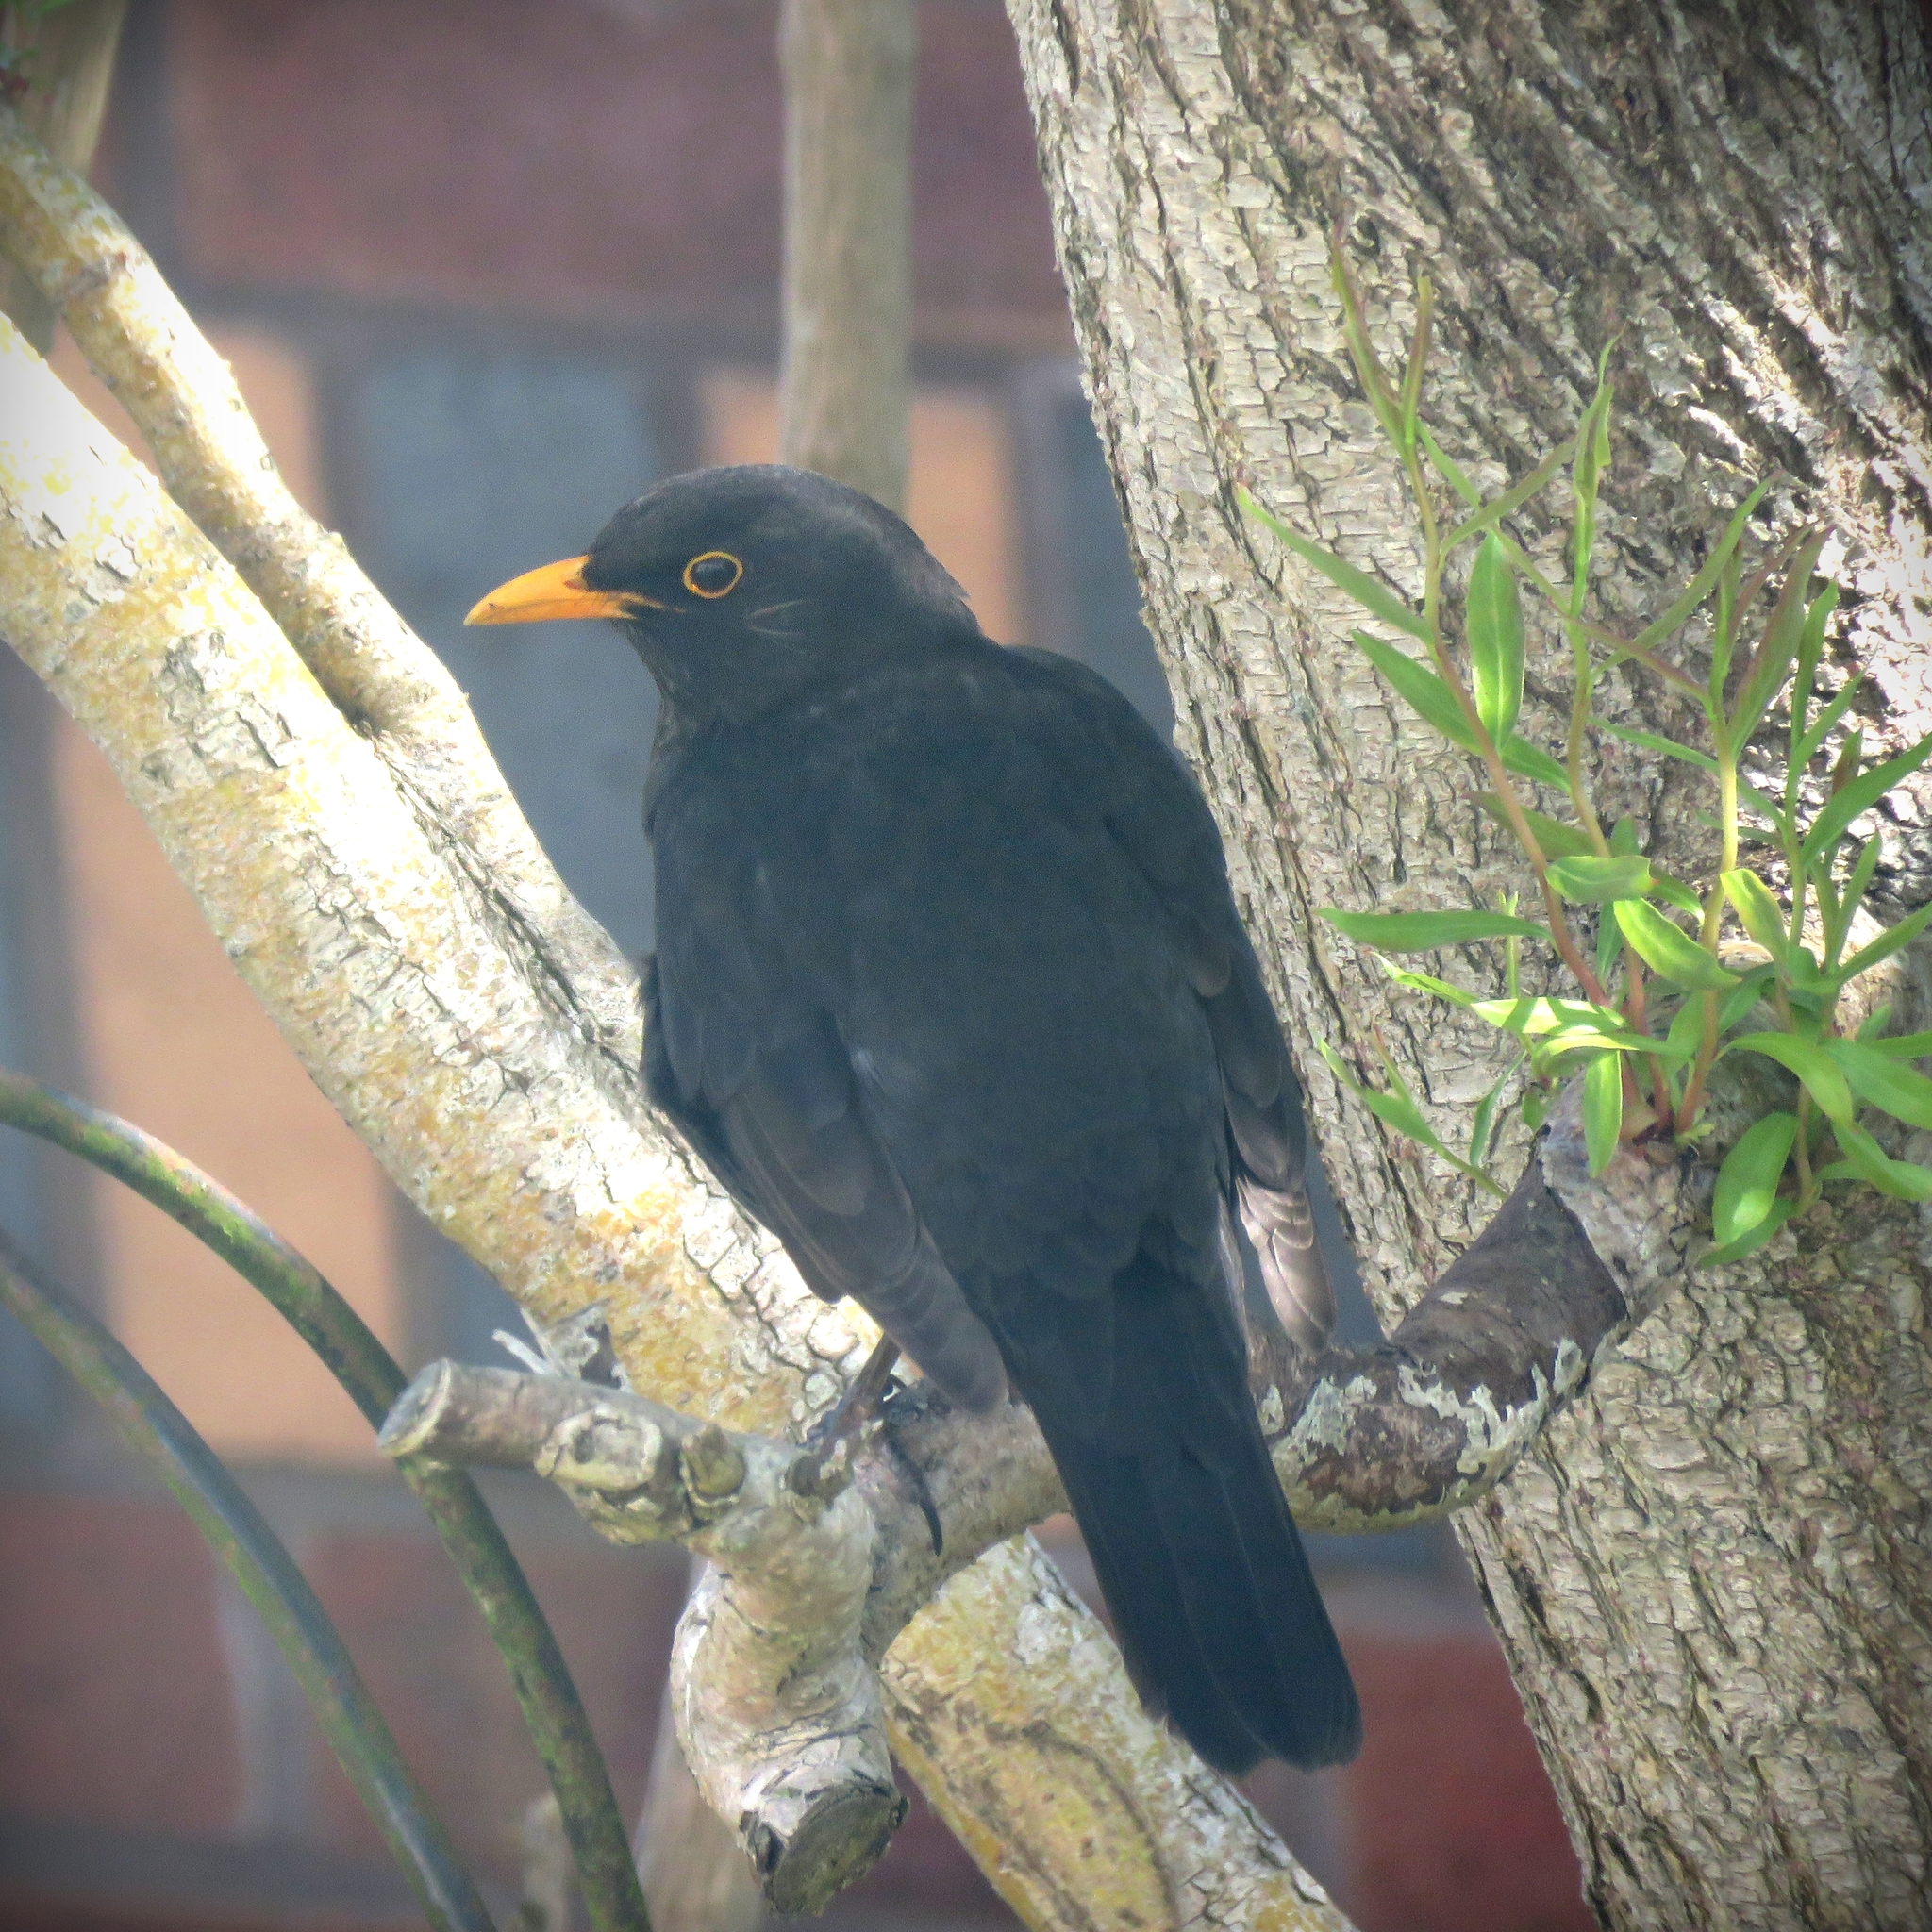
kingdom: Animalia
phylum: Chordata
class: Aves
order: Passeriformes
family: Turdidae
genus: Turdus
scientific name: Turdus merula
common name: Common blackbird
